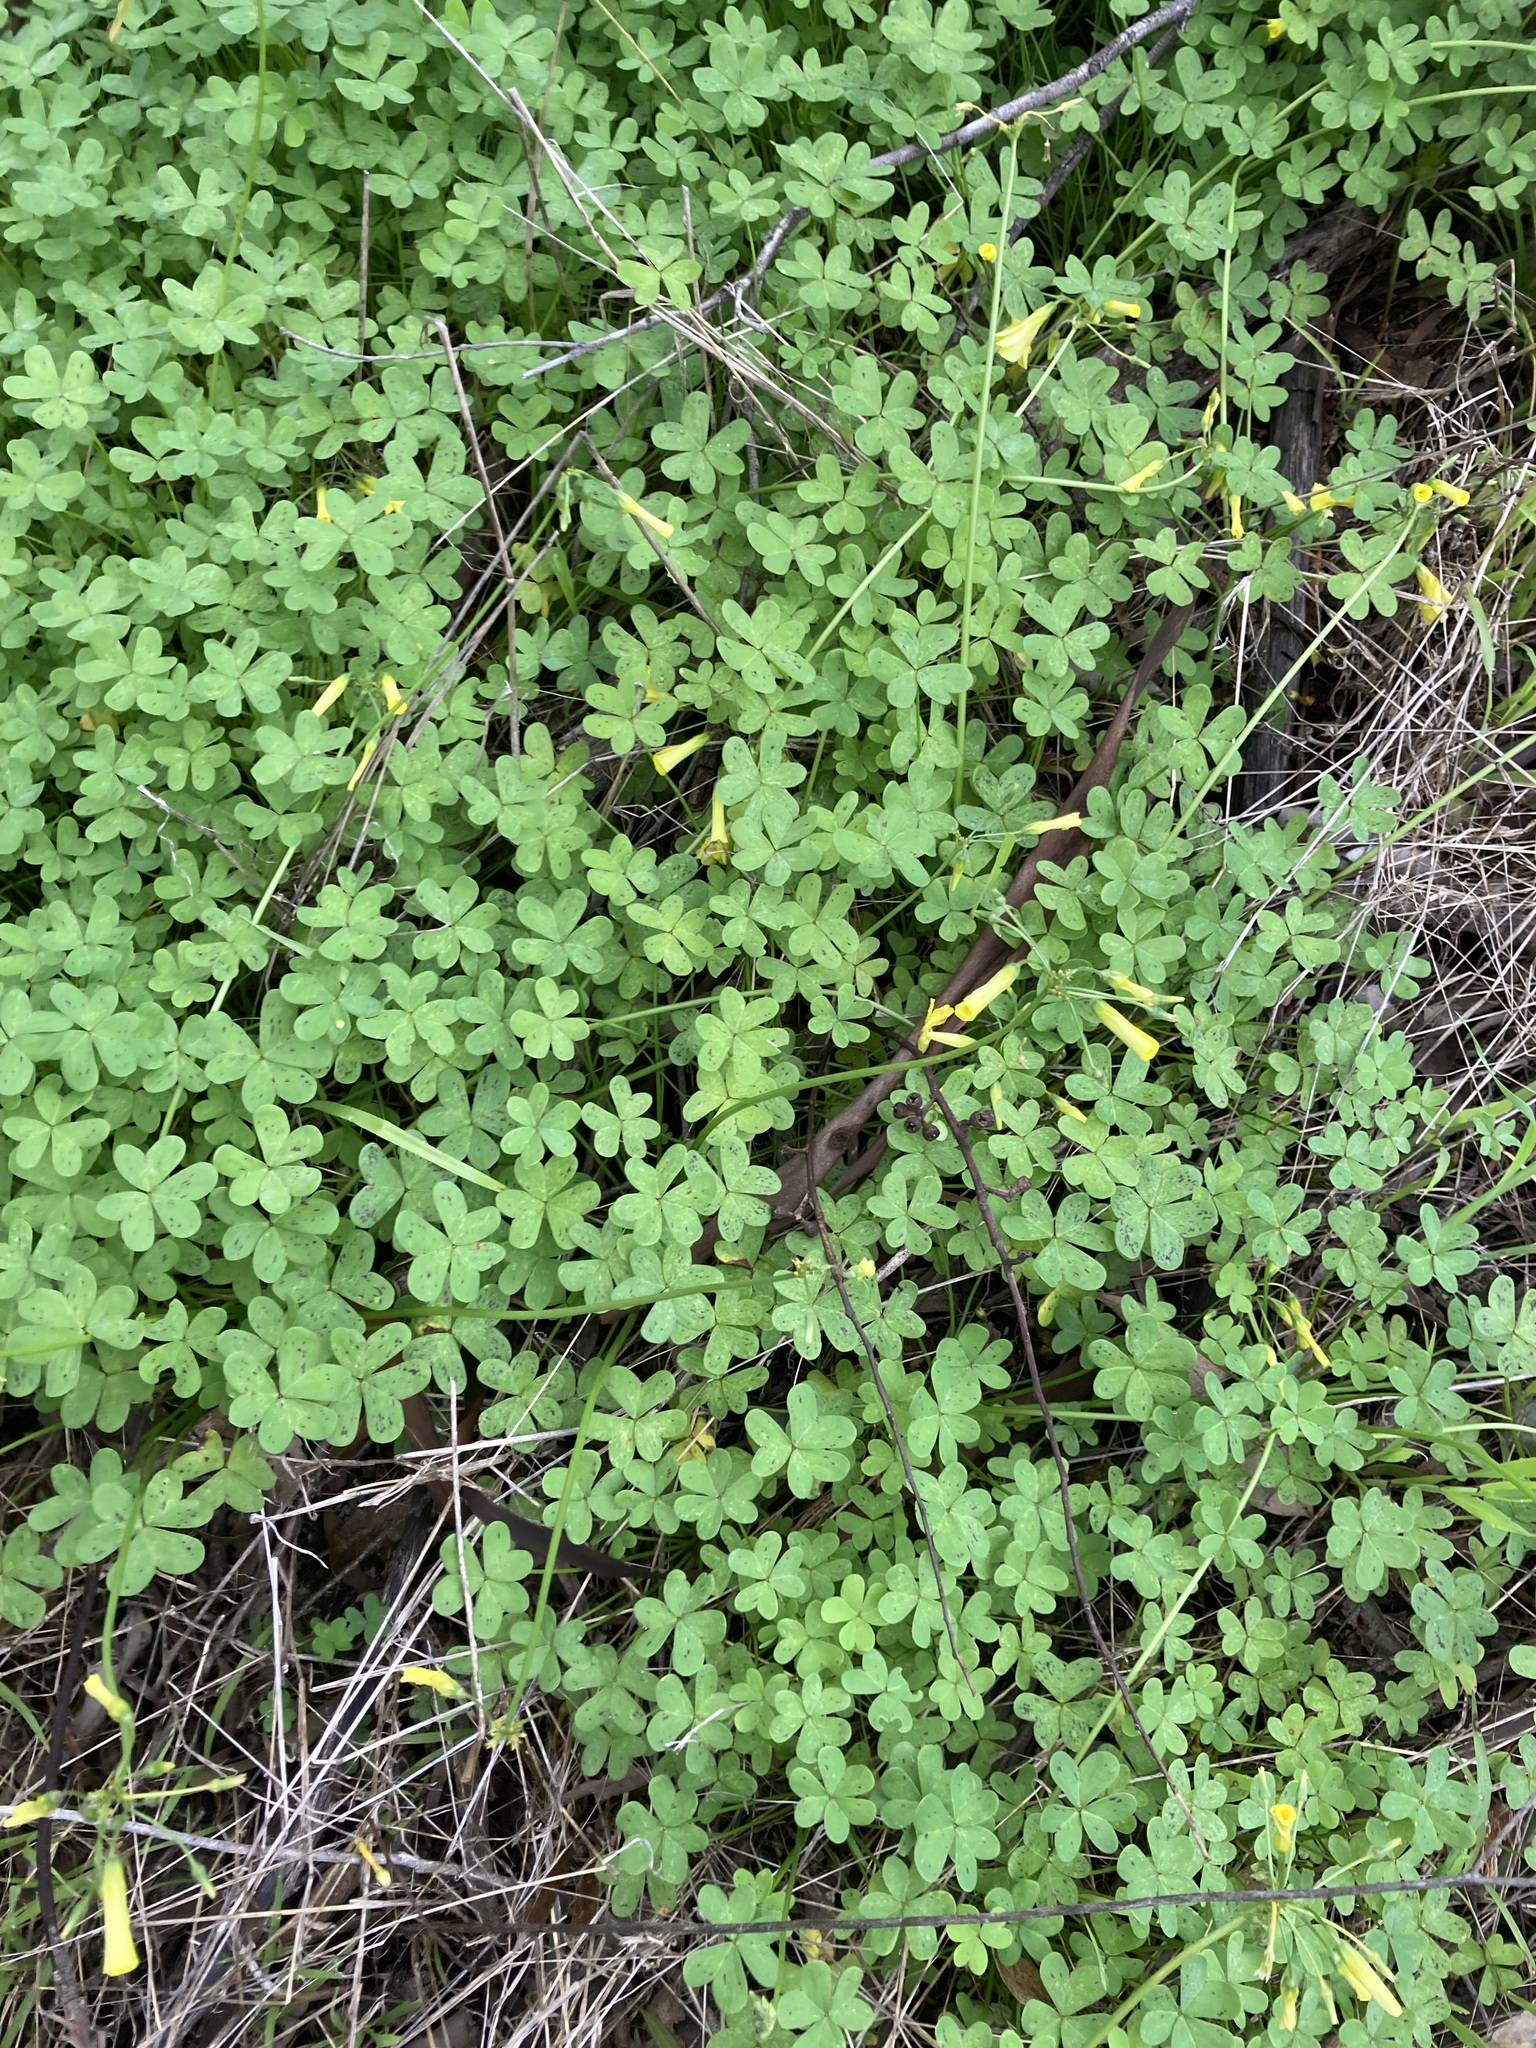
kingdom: Plantae
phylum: Tracheophyta
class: Magnoliopsida
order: Oxalidales
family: Oxalidaceae
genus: Oxalis
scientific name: Oxalis pes-caprae
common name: Bermuda-buttercup
